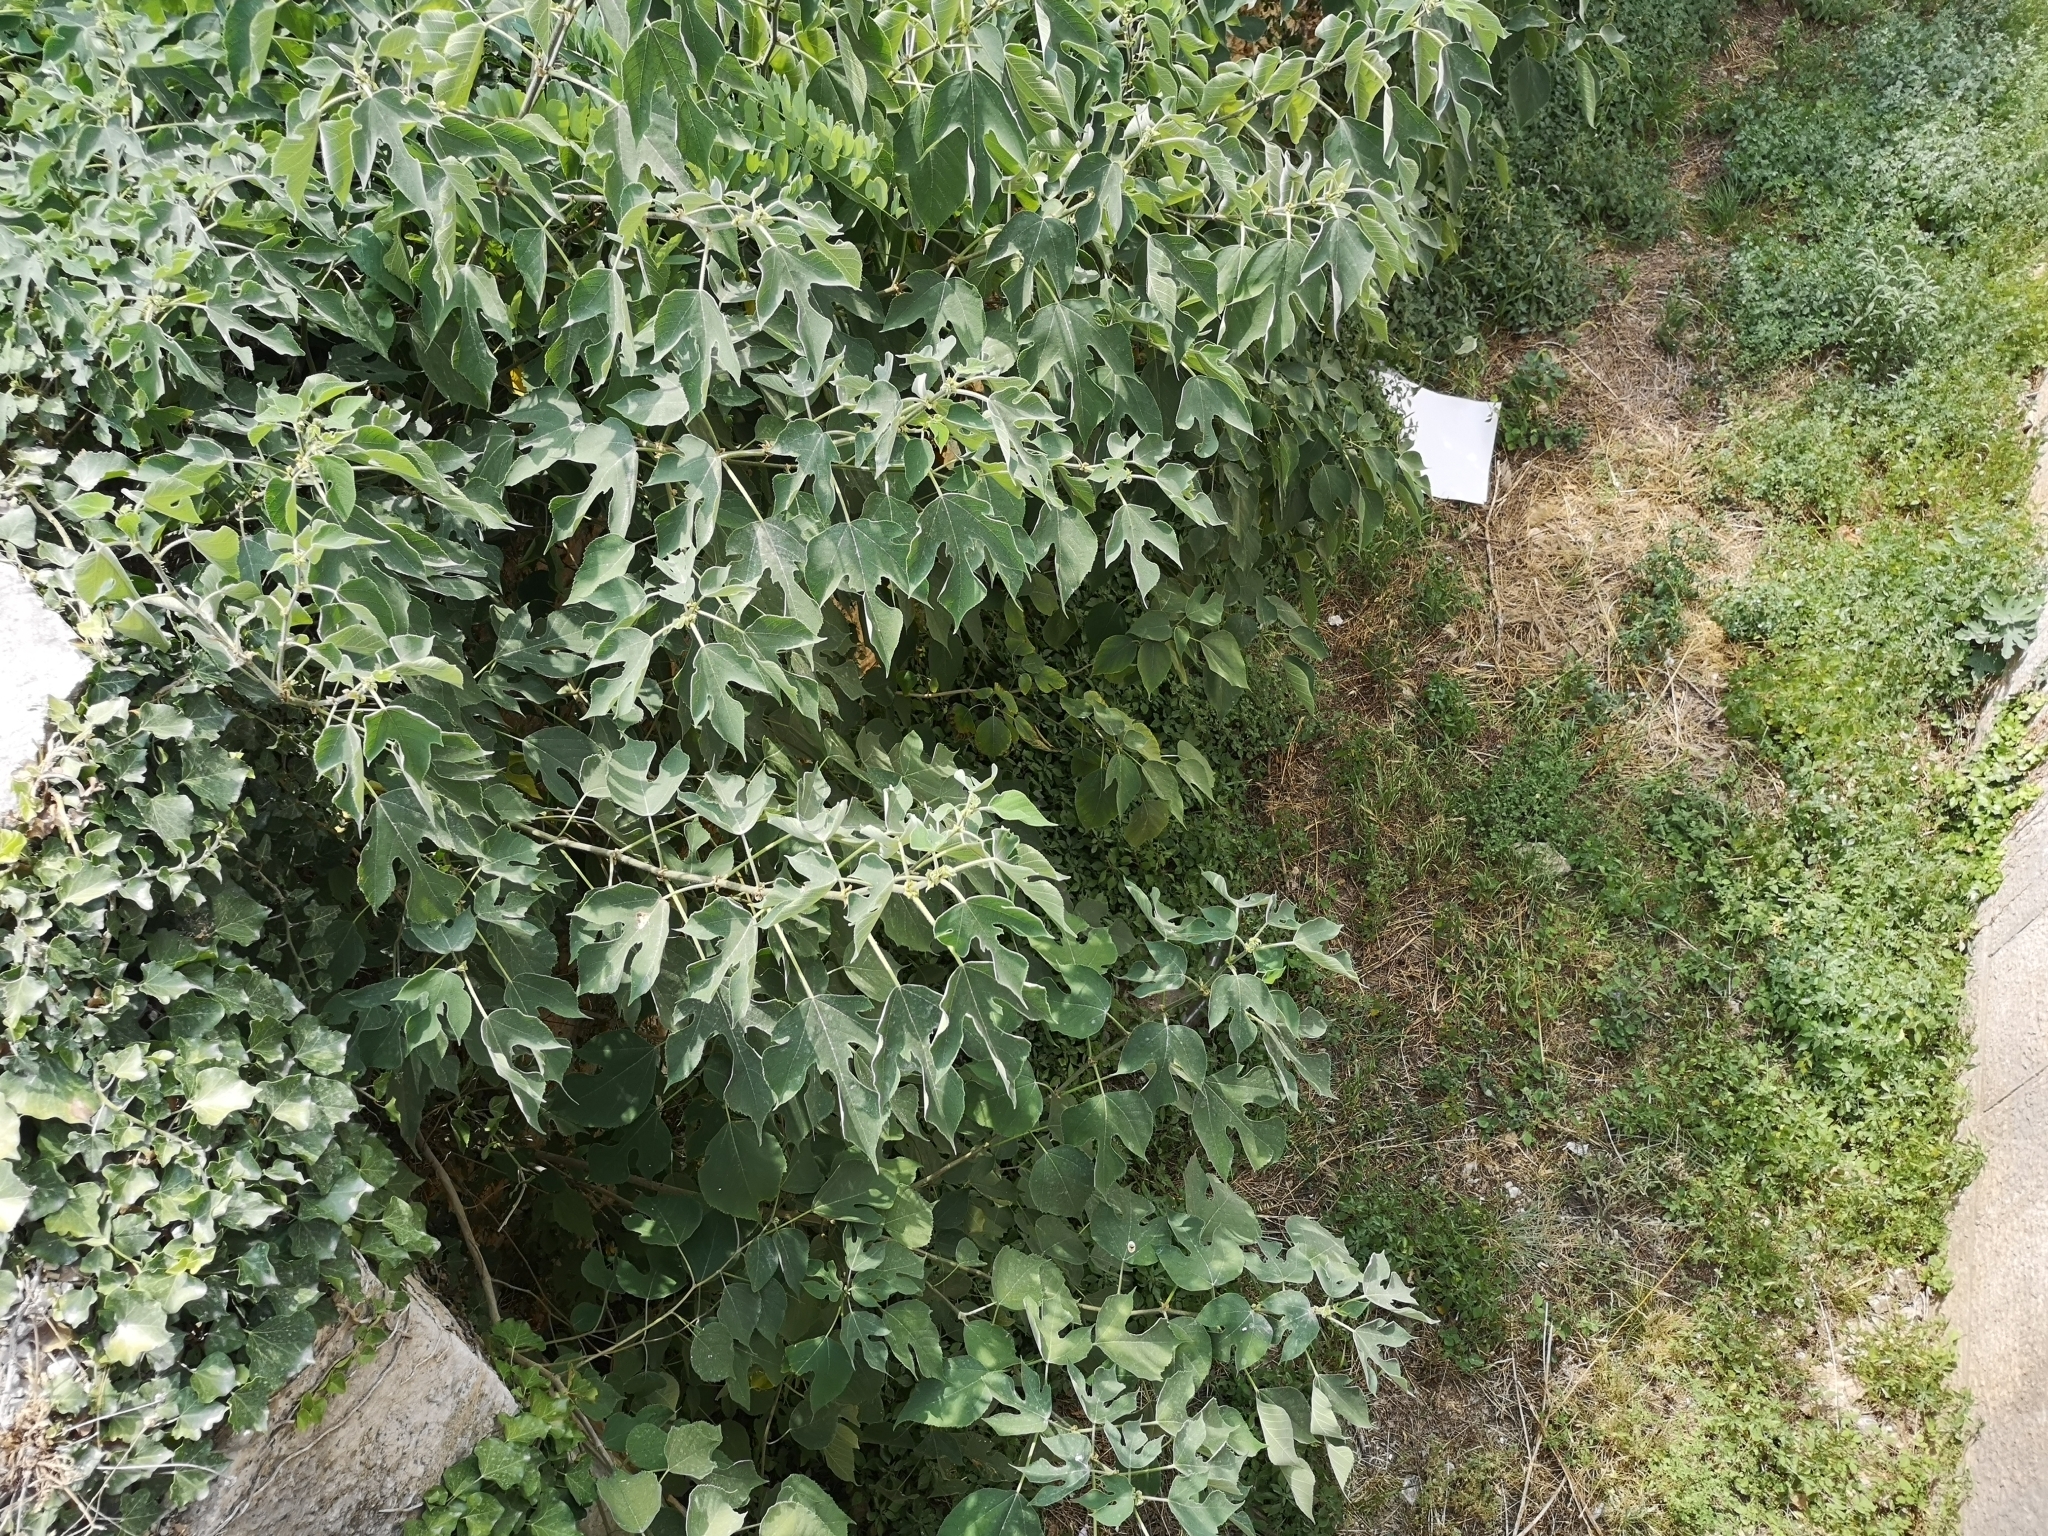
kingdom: Plantae
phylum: Tracheophyta
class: Magnoliopsida
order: Rosales
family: Moraceae
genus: Broussonetia
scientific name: Broussonetia papyrifera
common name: Paper mulberry
